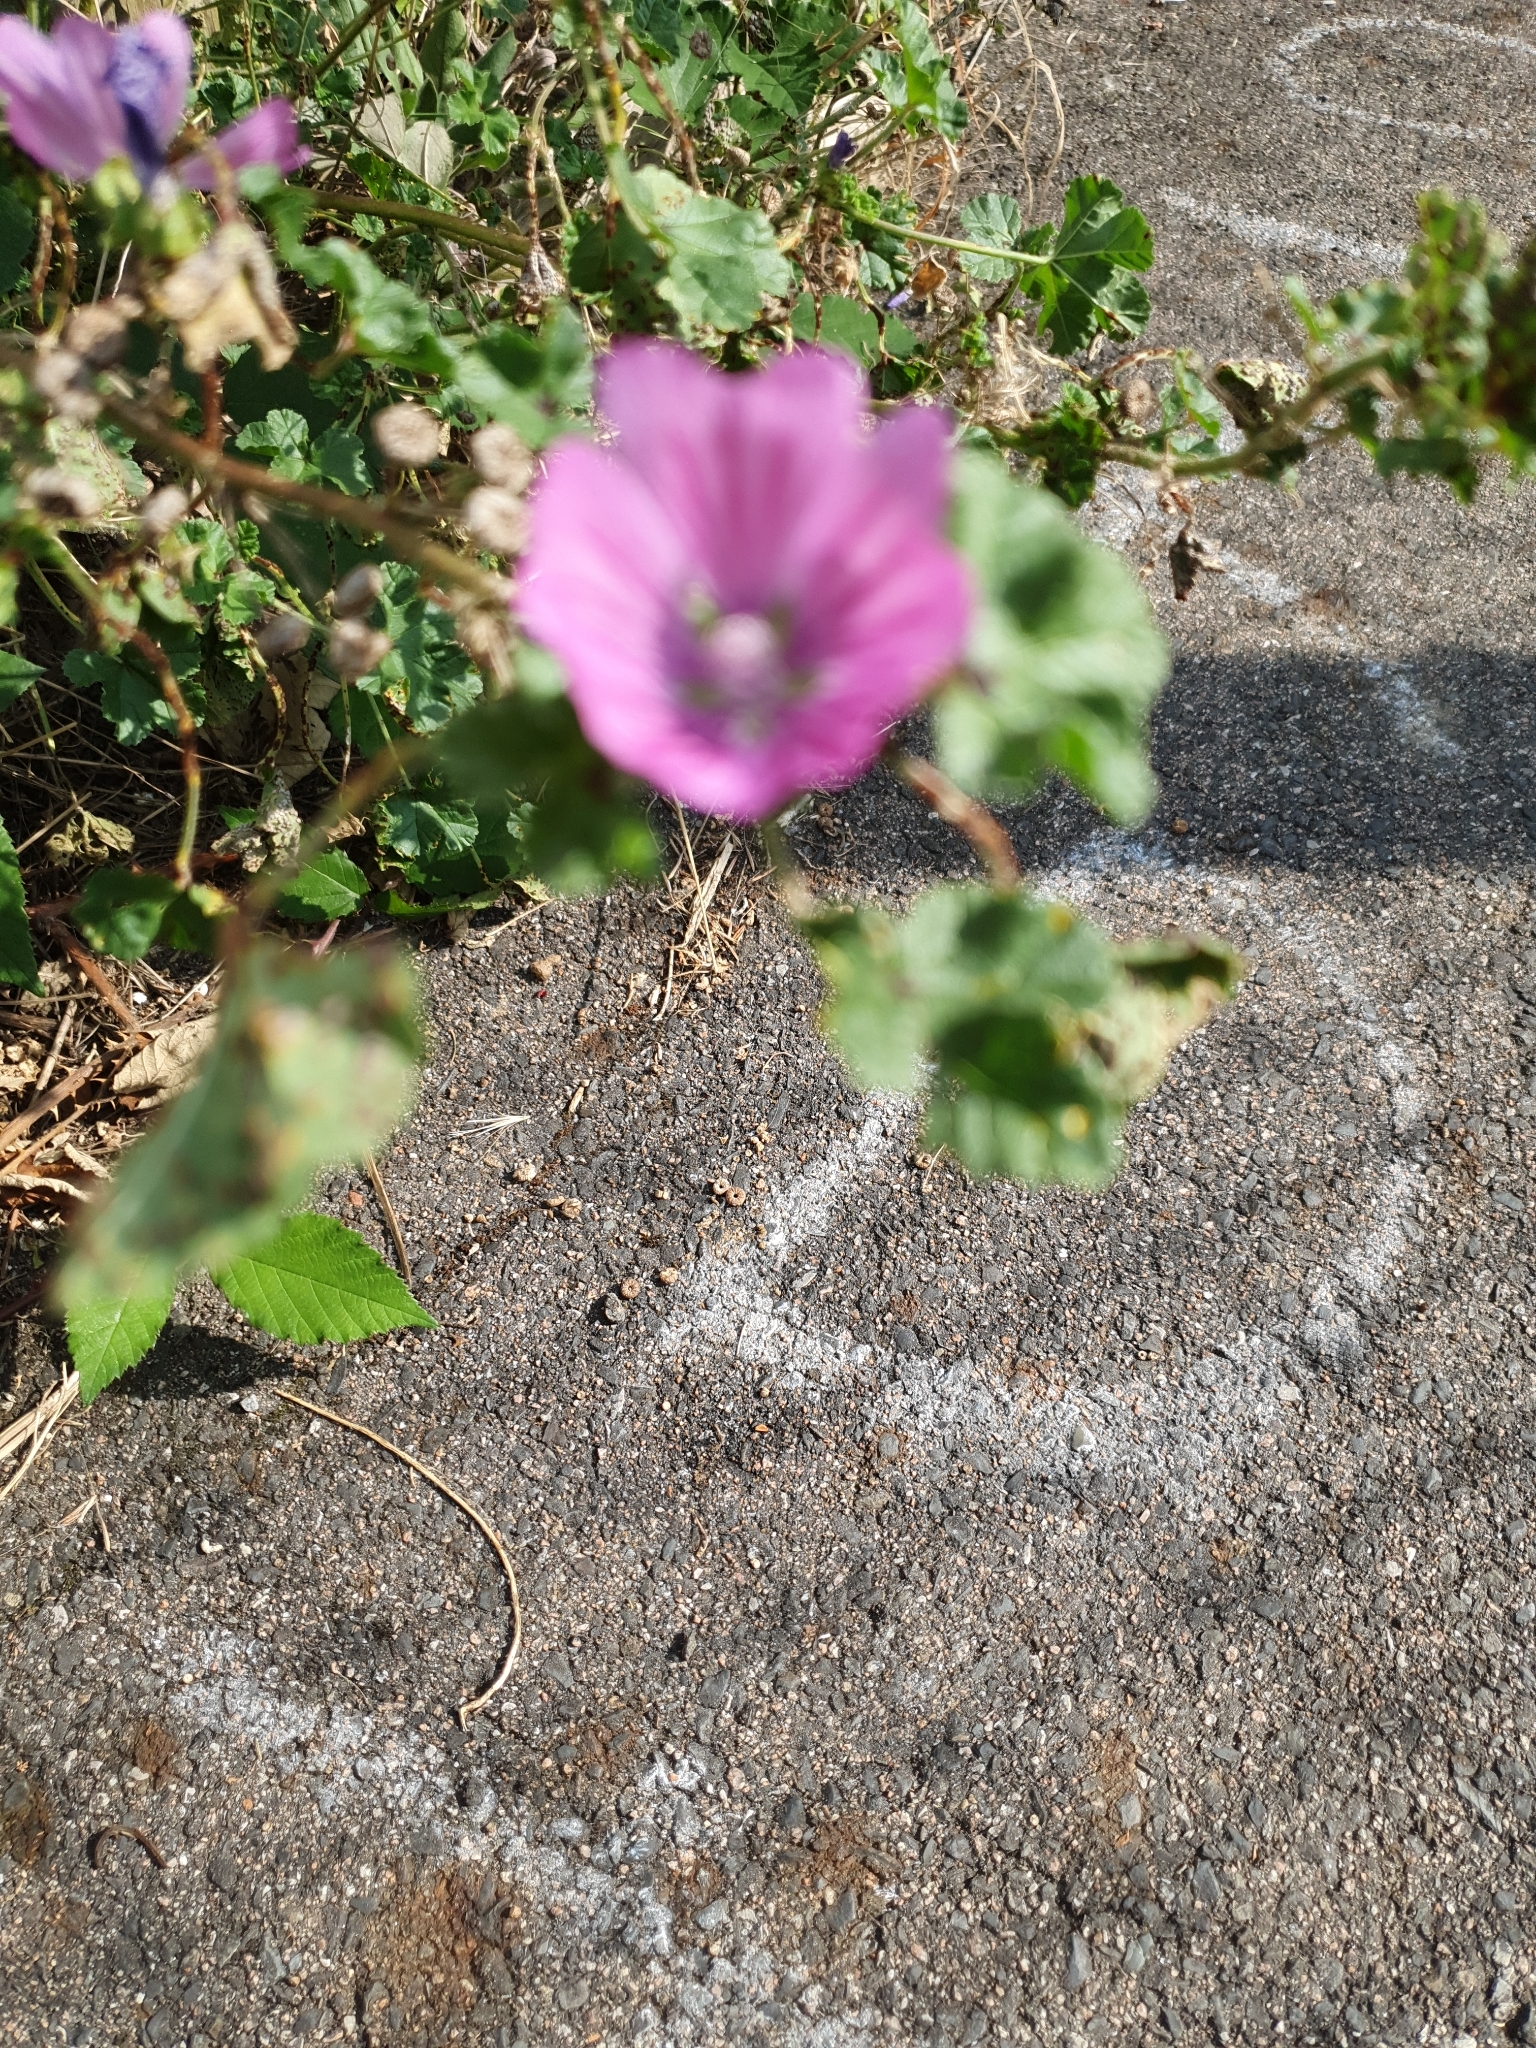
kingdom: Plantae
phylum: Tracheophyta
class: Magnoliopsida
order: Malvales
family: Malvaceae
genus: Malva
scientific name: Malva sylvestris
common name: Common mallow
